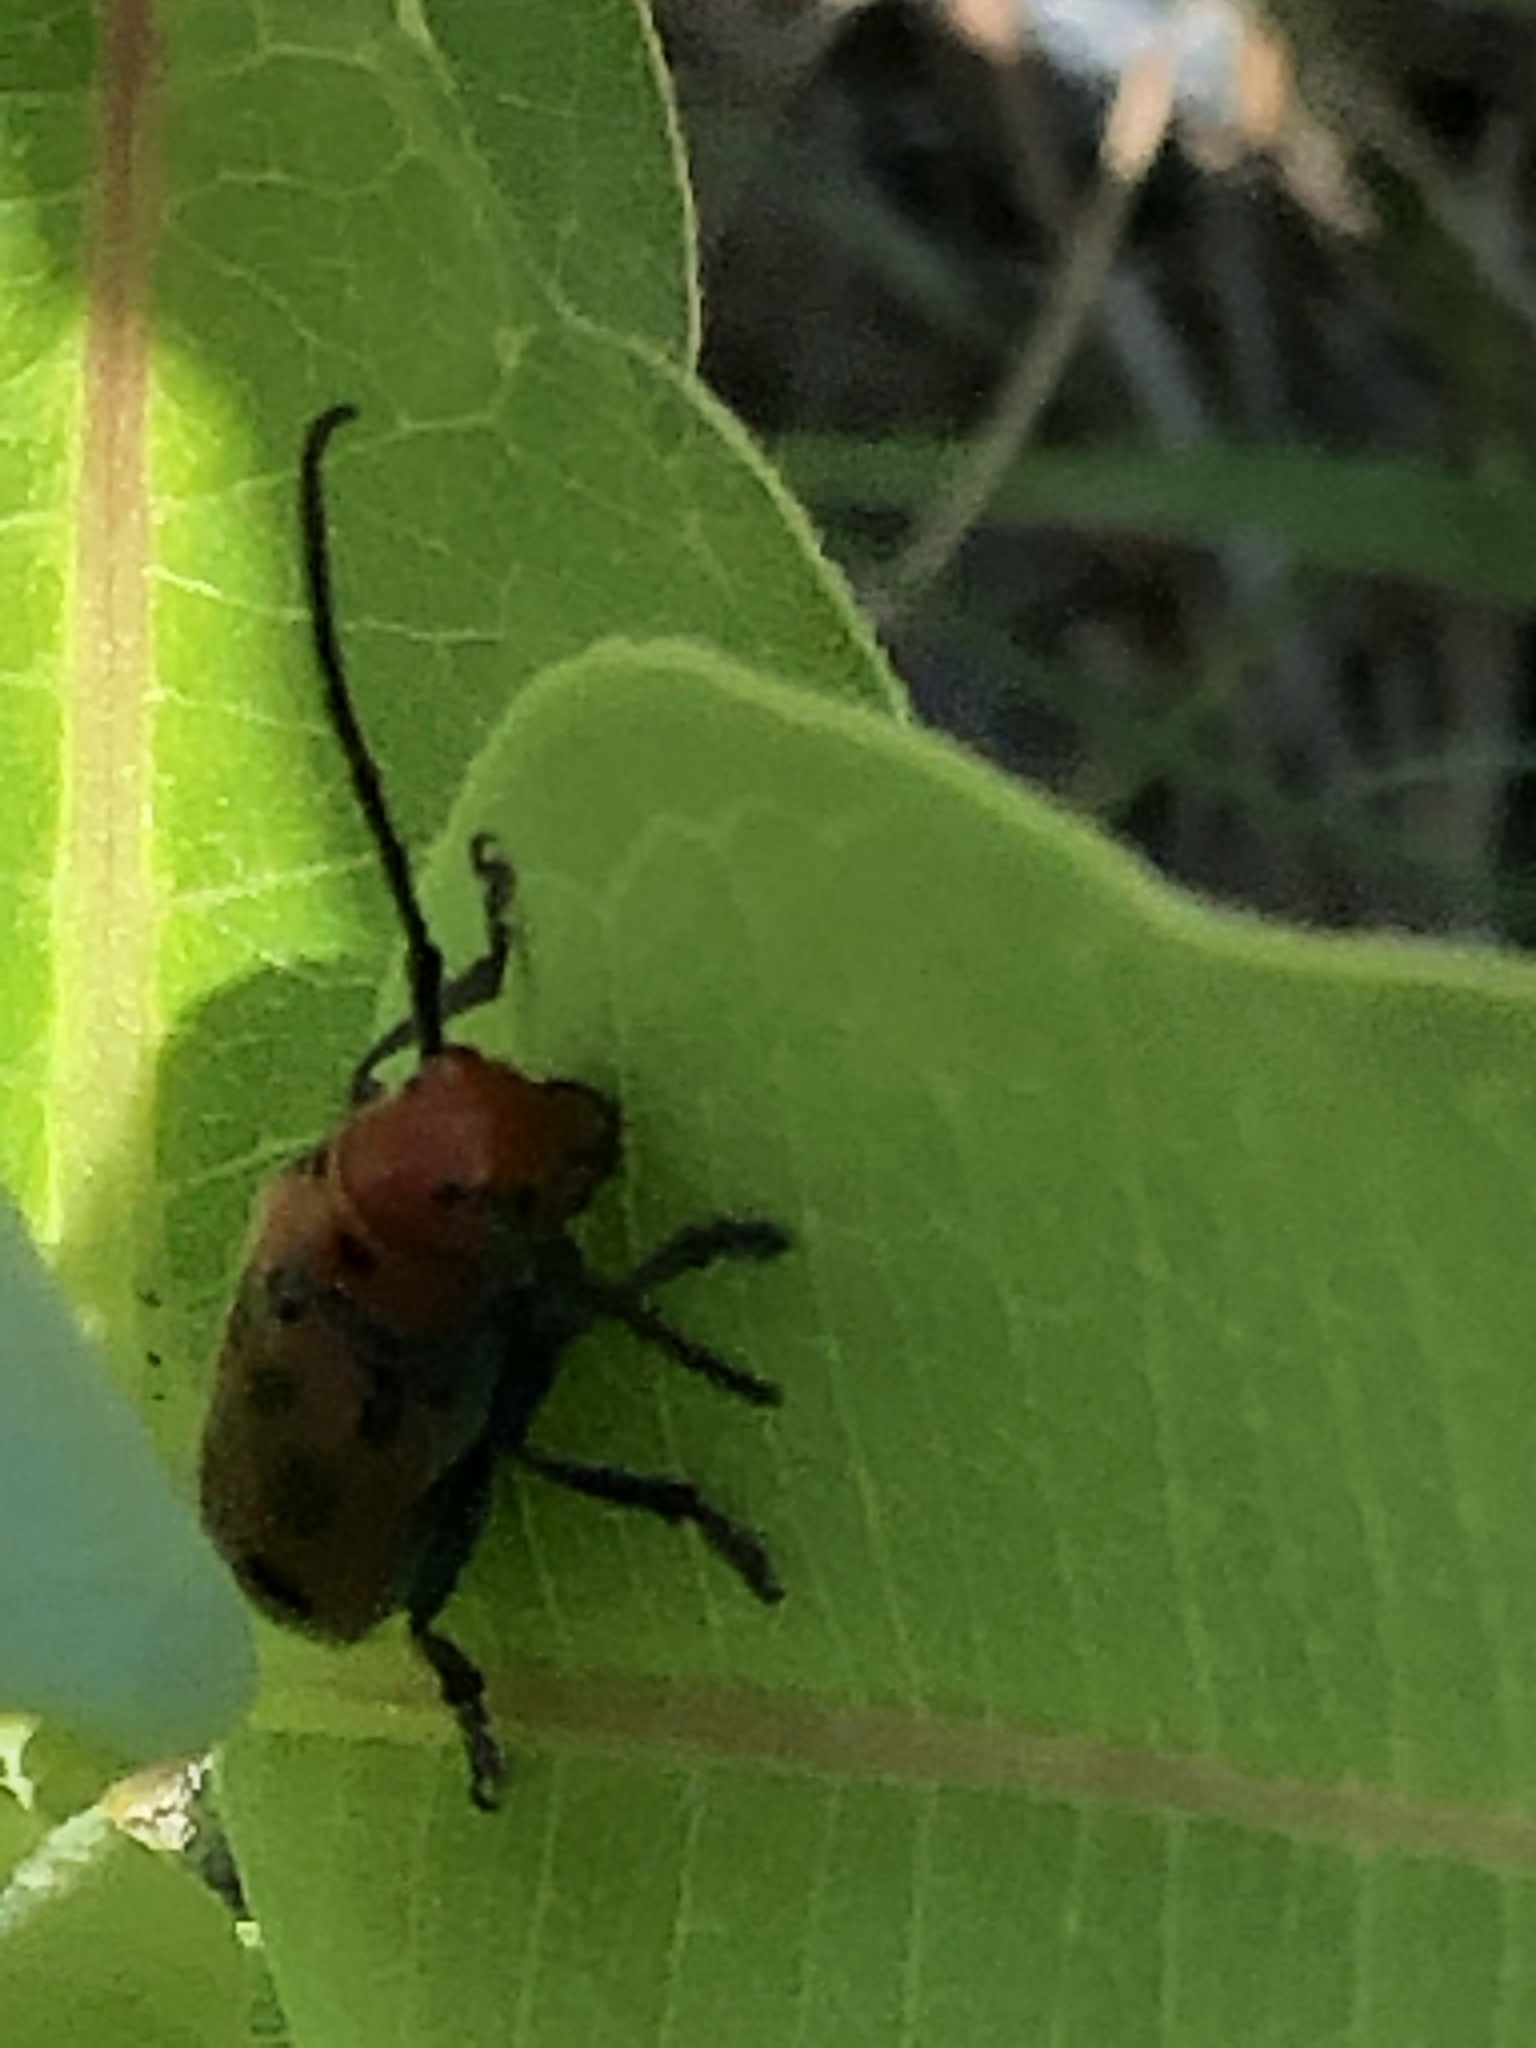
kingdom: Animalia
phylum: Arthropoda
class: Insecta
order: Coleoptera
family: Cerambycidae
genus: Tetraopes
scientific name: Tetraopes tetrophthalmus
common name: Red milkweed beetle
